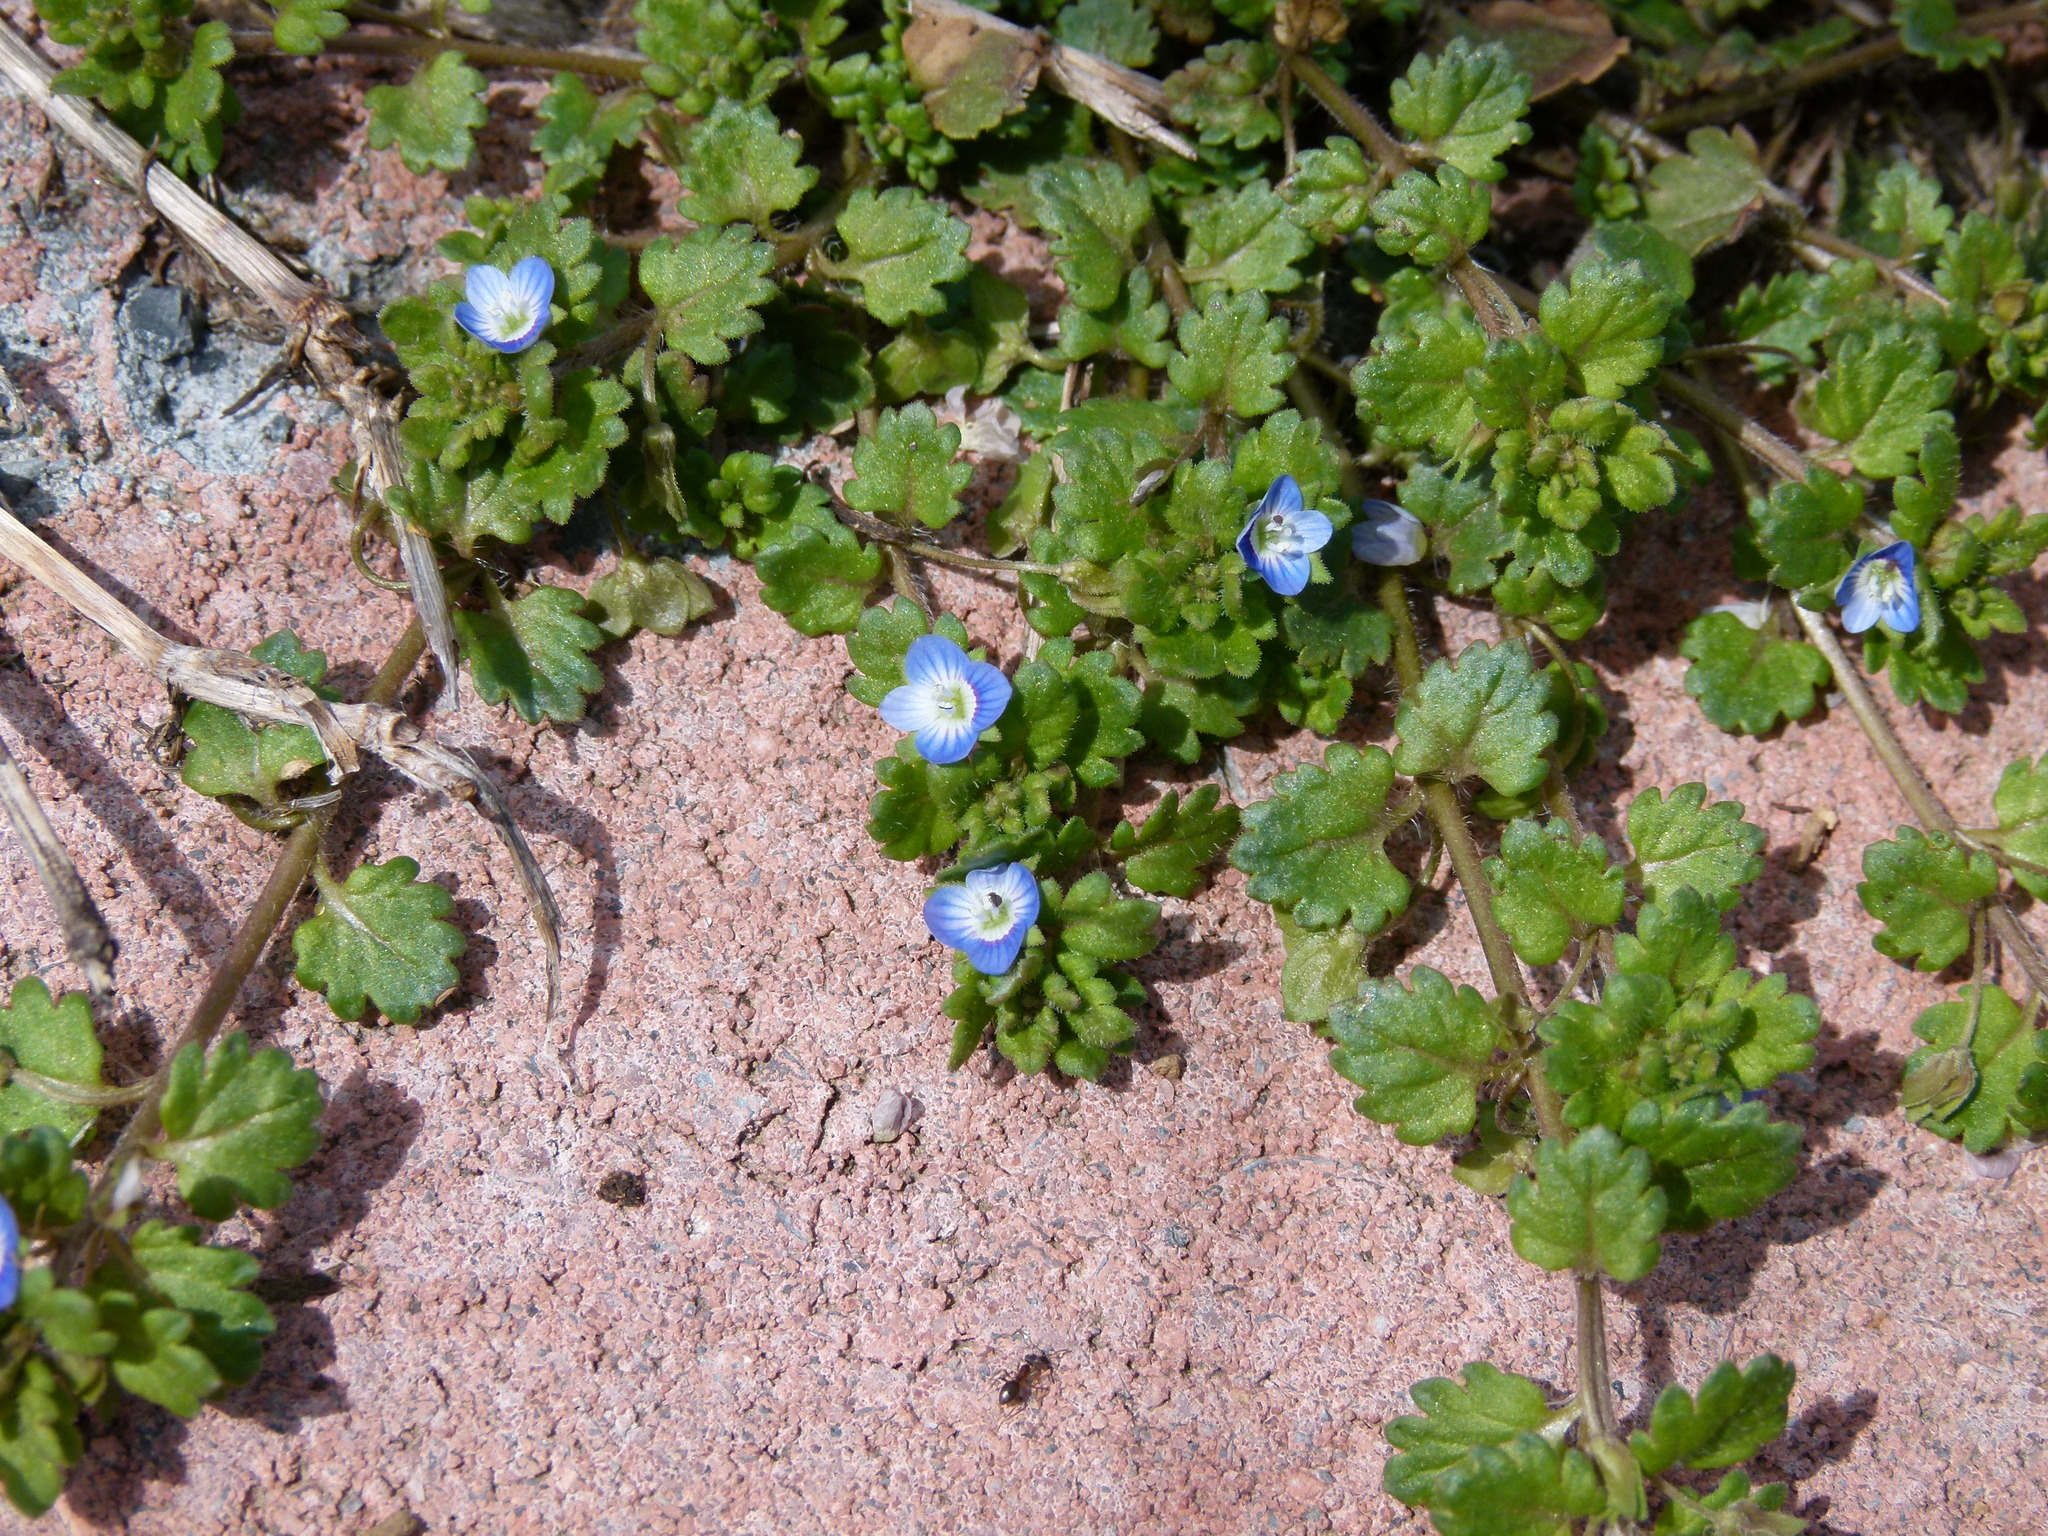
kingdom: Plantae
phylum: Tracheophyta
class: Magnoliopsida
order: Lamiales
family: Plantaginaceae
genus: Veronica
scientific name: Veronica polita
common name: Grey field-speedwell
